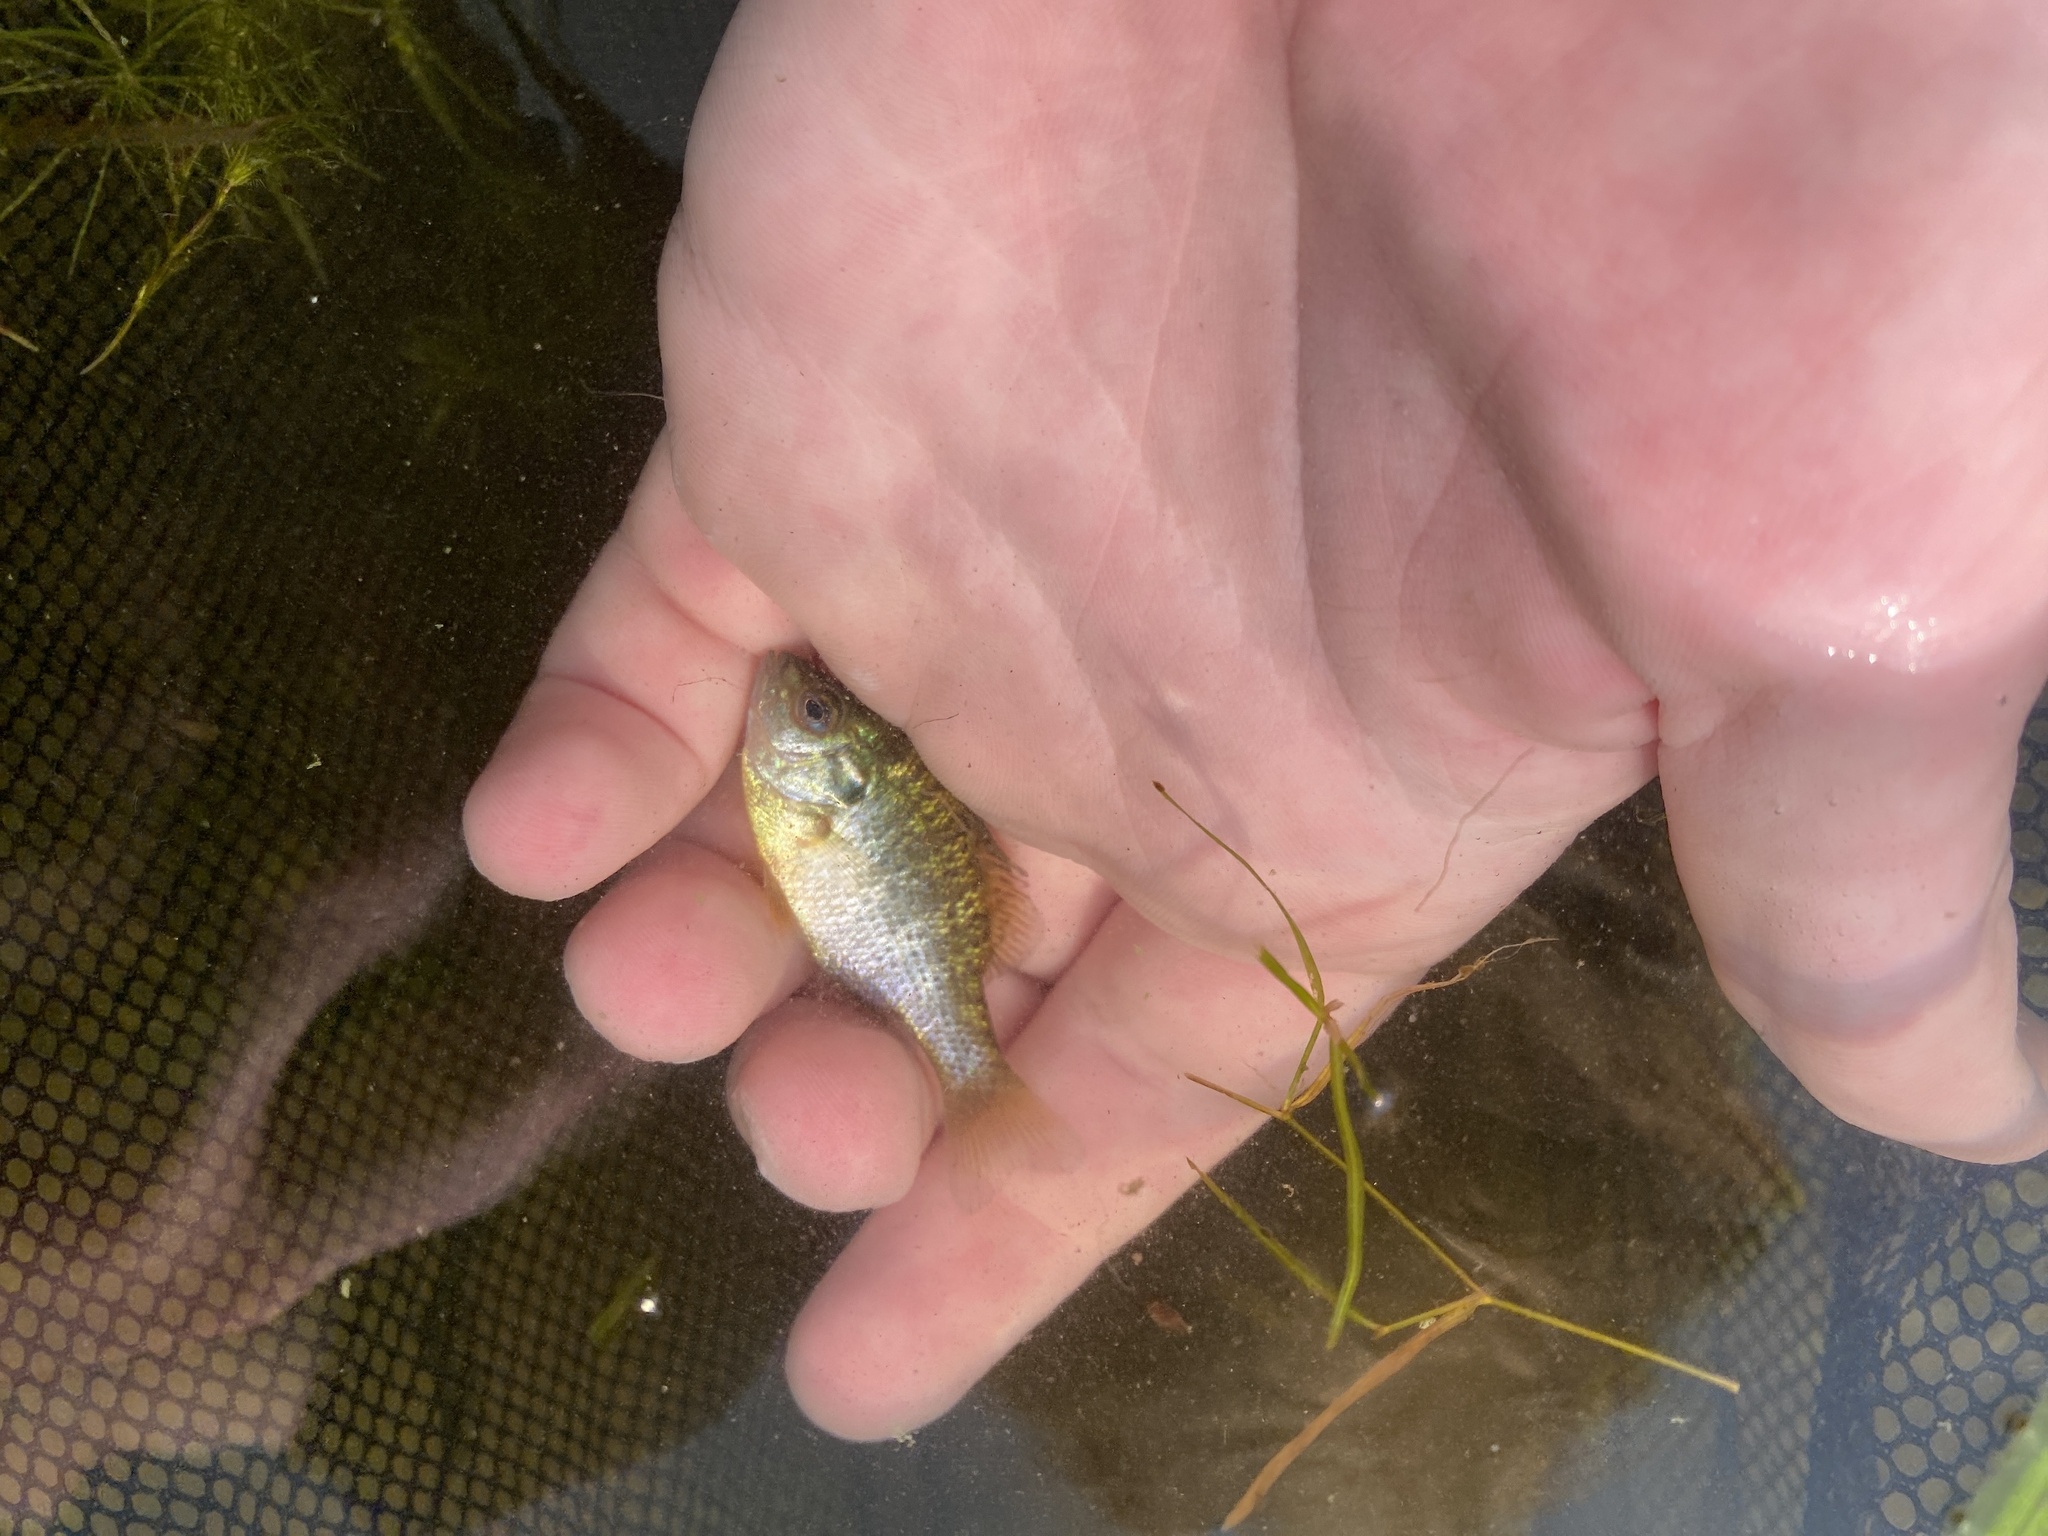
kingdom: Animalia
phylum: Chordata
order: Perciformes
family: Centrarchidae
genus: Lepomis
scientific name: Lepomis gibbosus
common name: Pumpkinseed
